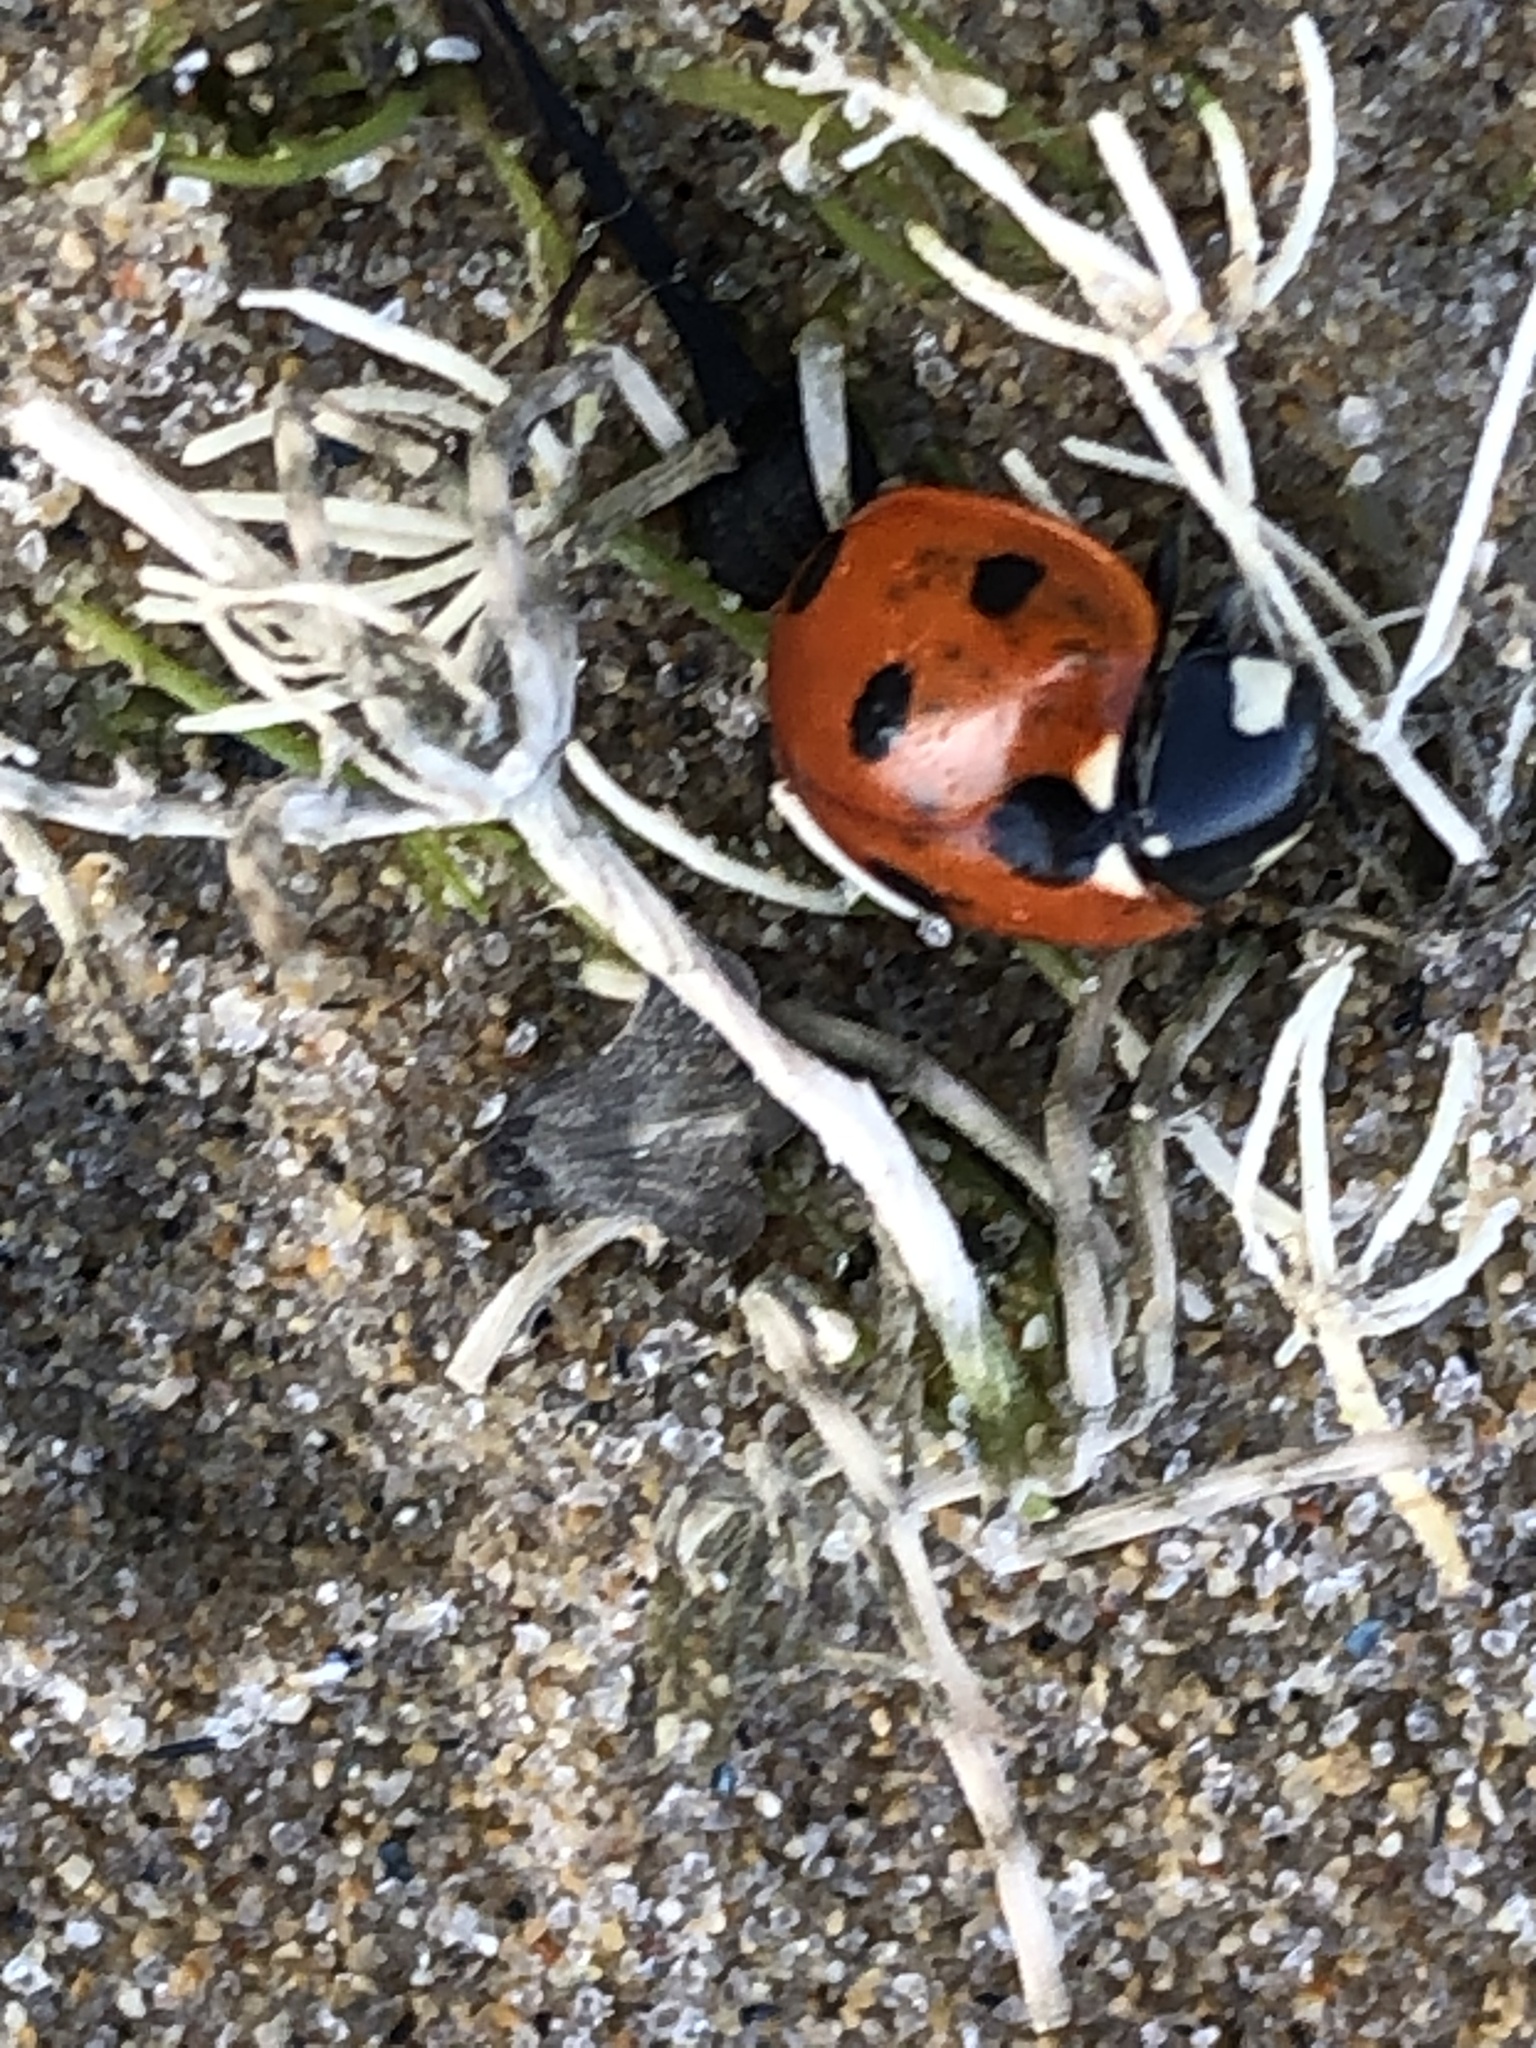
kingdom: Animalia
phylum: Arthropoda
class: Insecta
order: Coleoptera
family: Coccinellidae
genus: Coccinella
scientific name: Coccinella septempunctata
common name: Sevenspotted lady beetle
